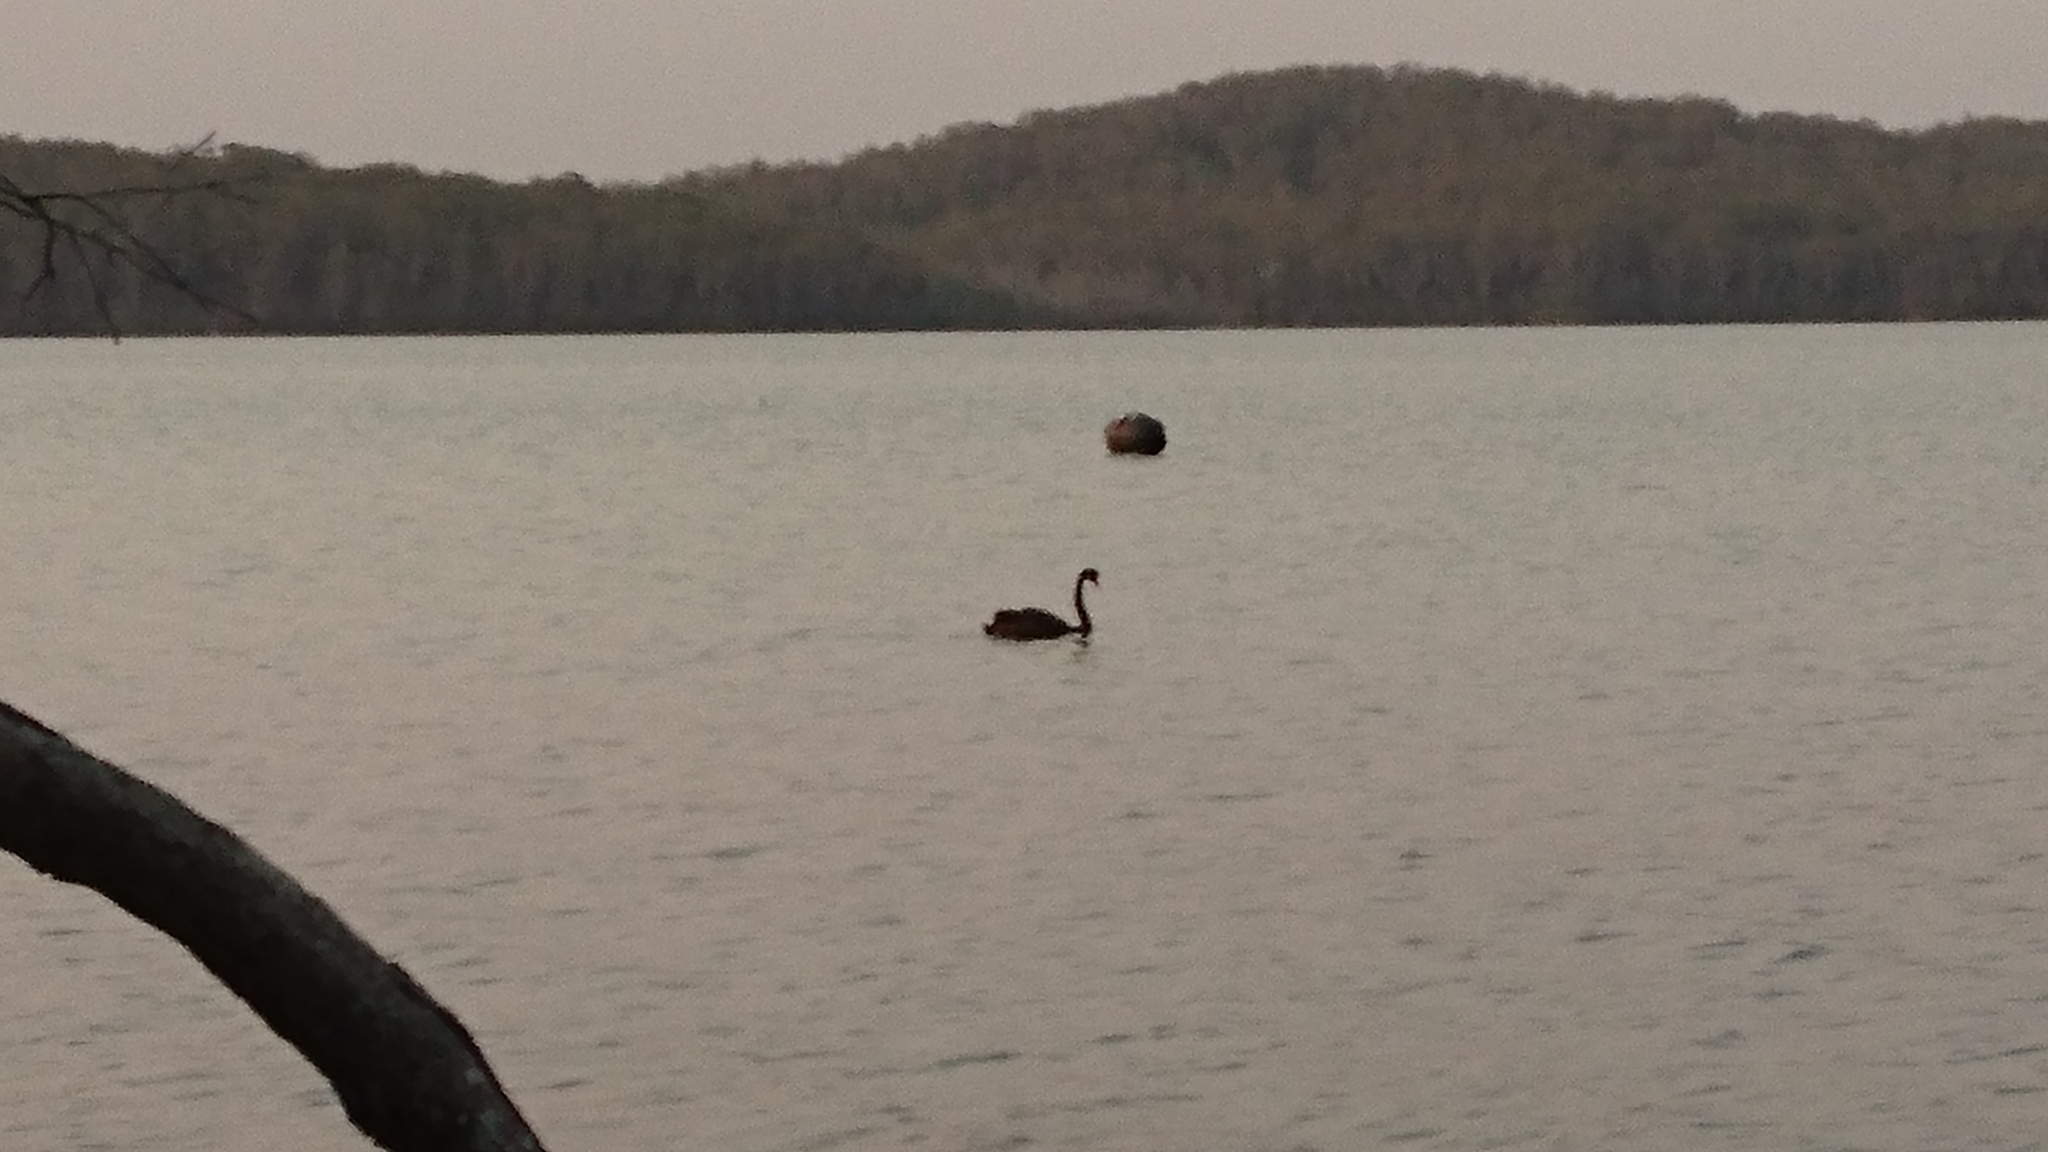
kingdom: Animalia
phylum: Chordata
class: Aves
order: Anseriformes
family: Anatidae
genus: Cygnus
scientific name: Cygnus atratus
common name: Black swan
